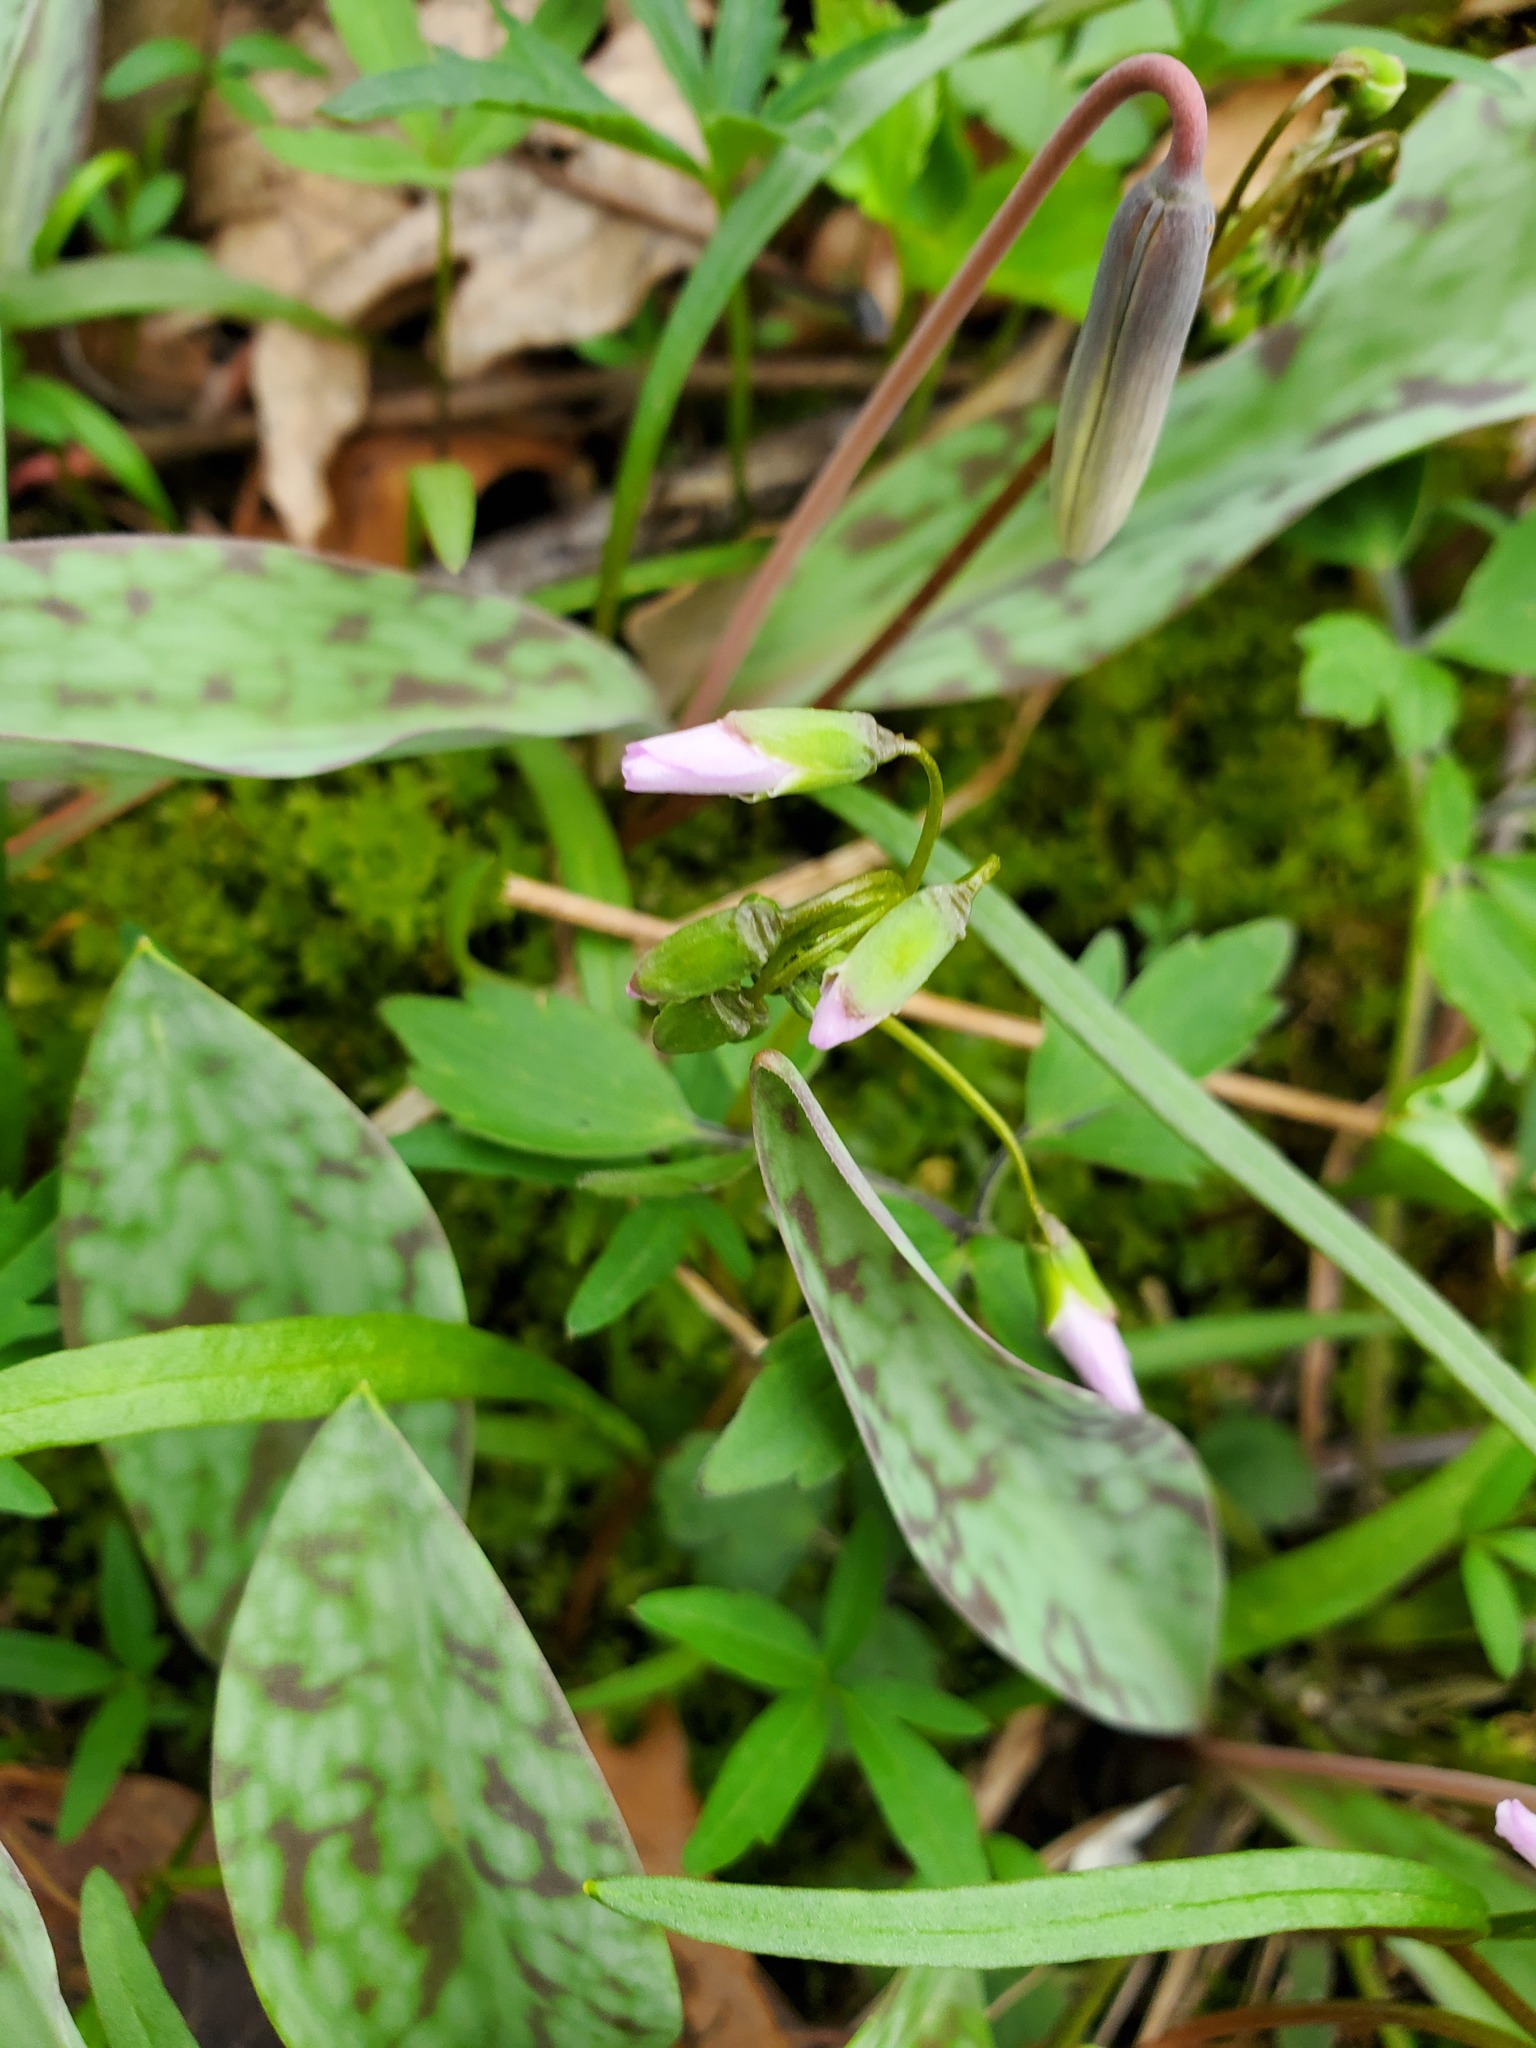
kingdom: Plantae
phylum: Tracheophyta
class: Magnoliopsida
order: Caryophyllales
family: Montiaceae
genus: Claytonia
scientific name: Claytonia virginica
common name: Virginia springbeauty
